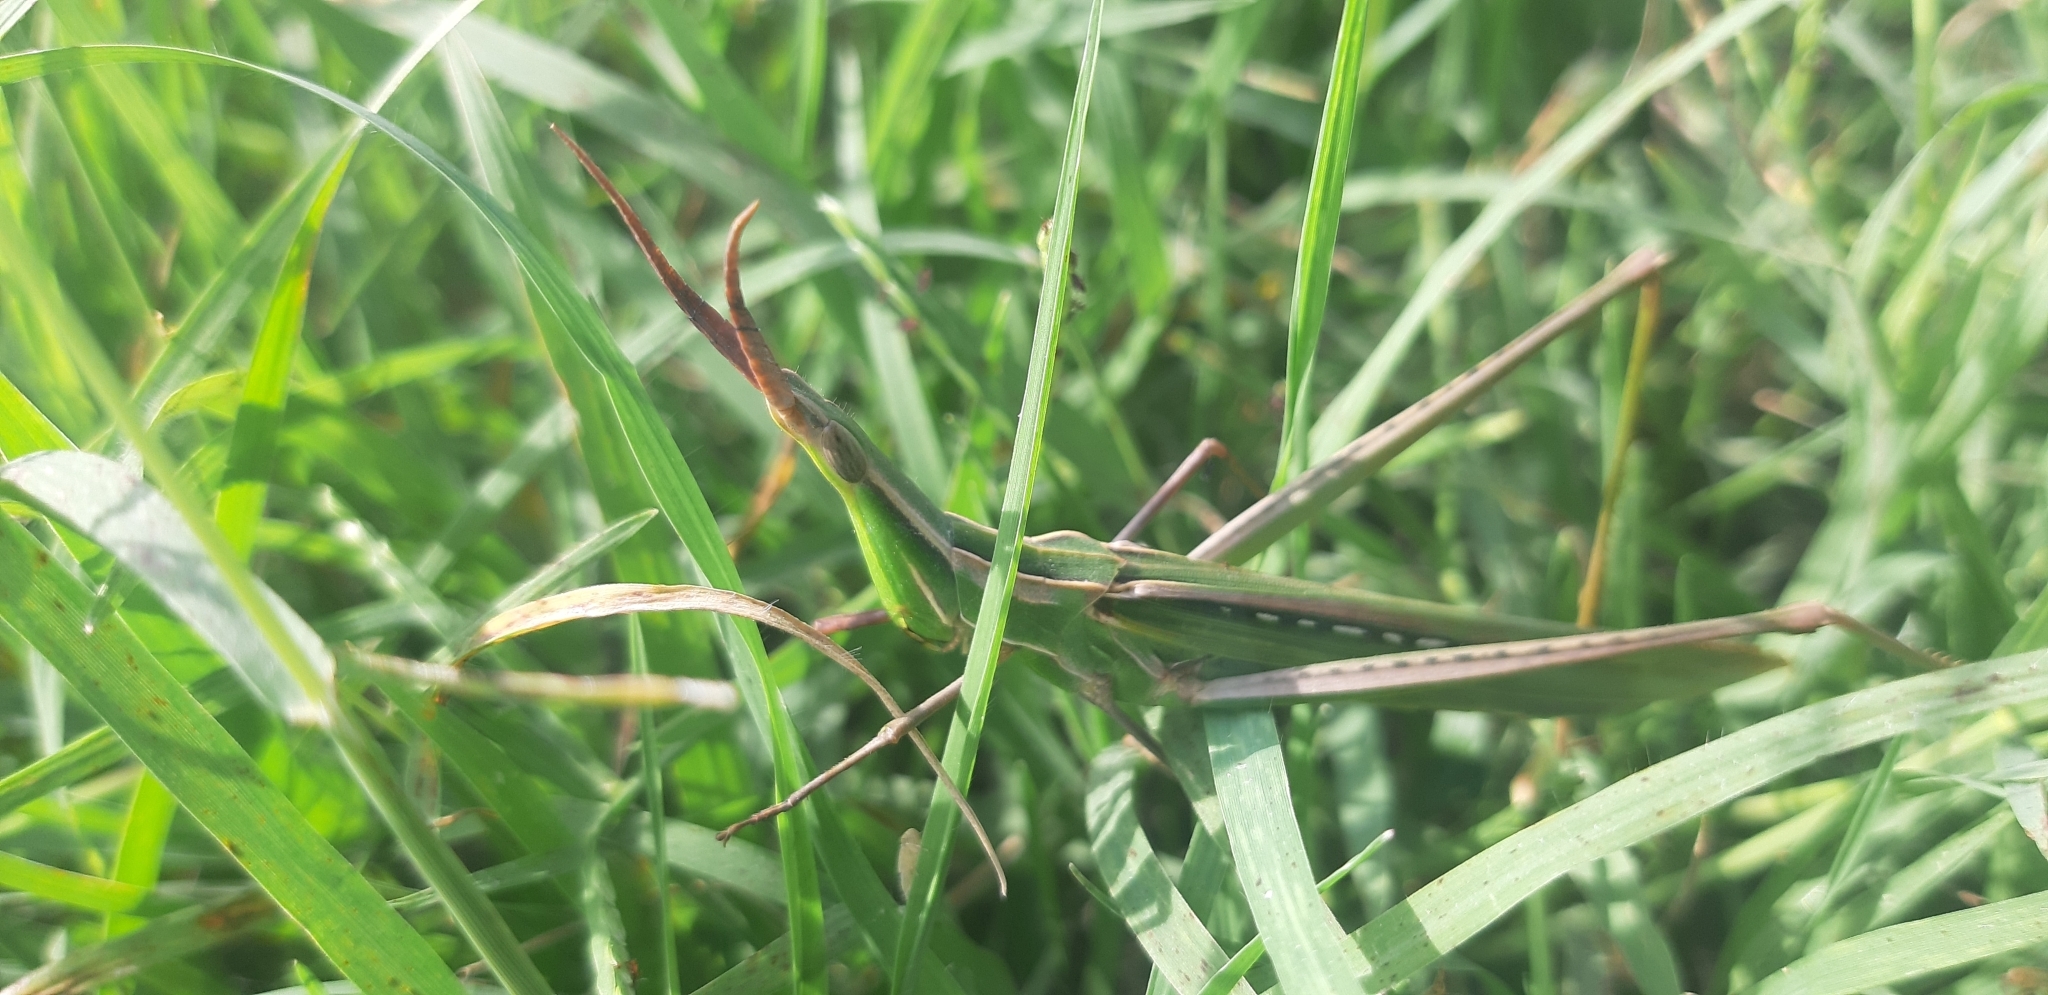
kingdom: Animalia
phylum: Arthropoda
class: Insecta
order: Orthoptera
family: Acrididae
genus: Acrida
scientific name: Acrida ungarica
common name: Common cone-headed grasshopper
